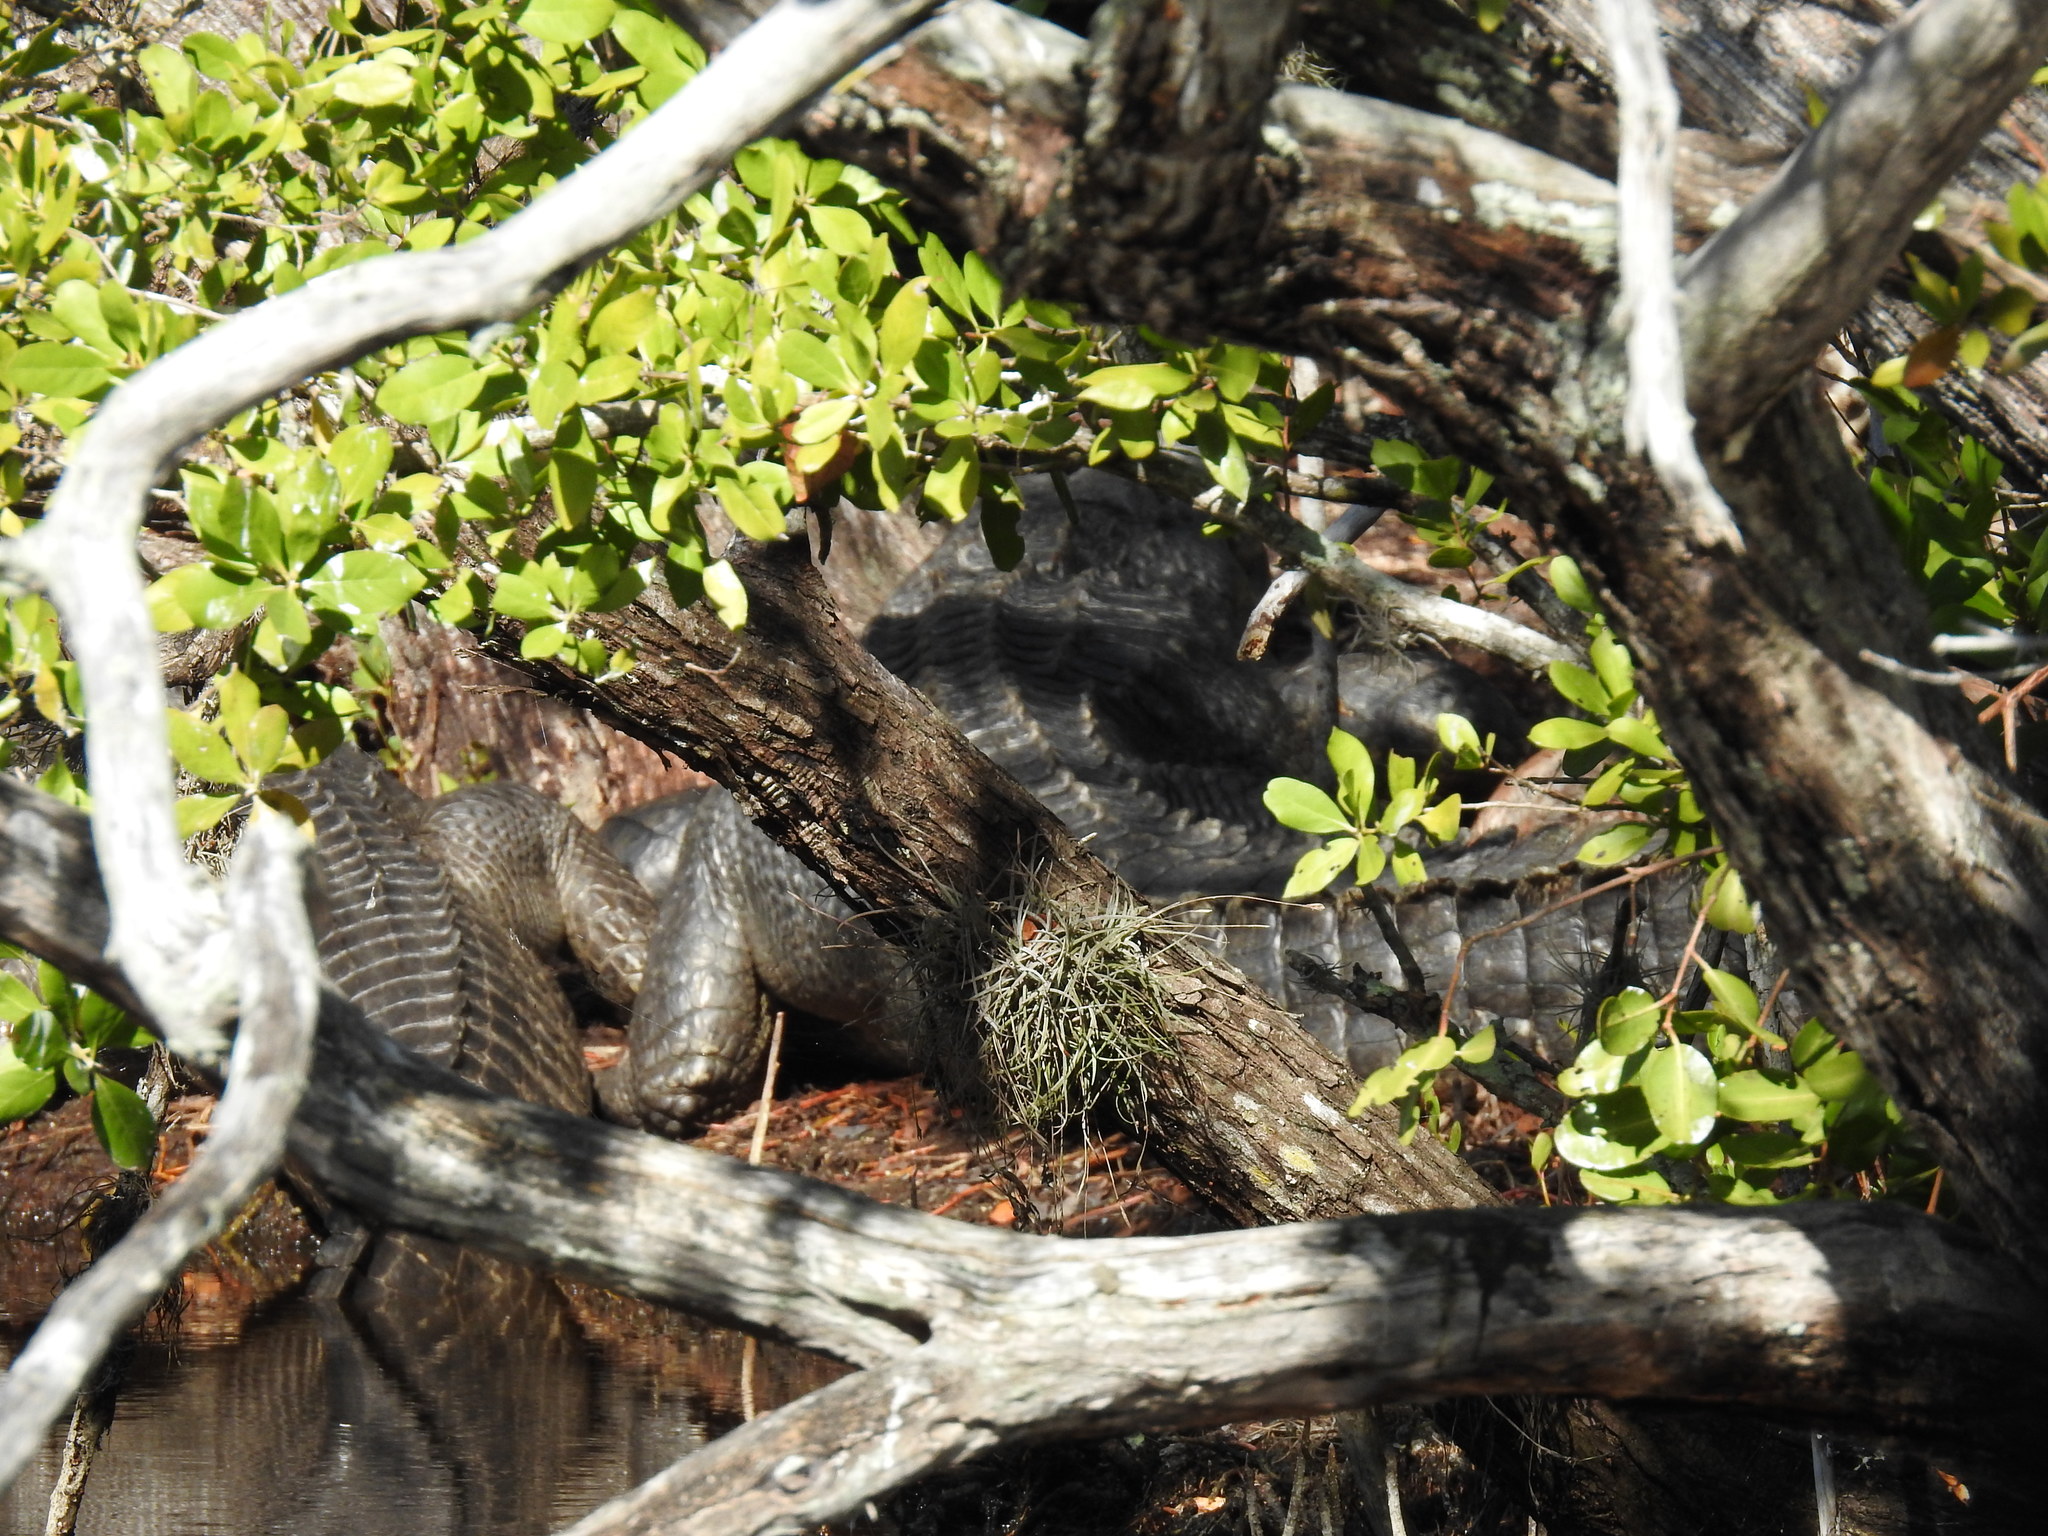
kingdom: Animalia
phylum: Chordata
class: Crocodylia
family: Alligatoridae
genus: Alligator
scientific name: Alligator mississippiensis
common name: American alligator
